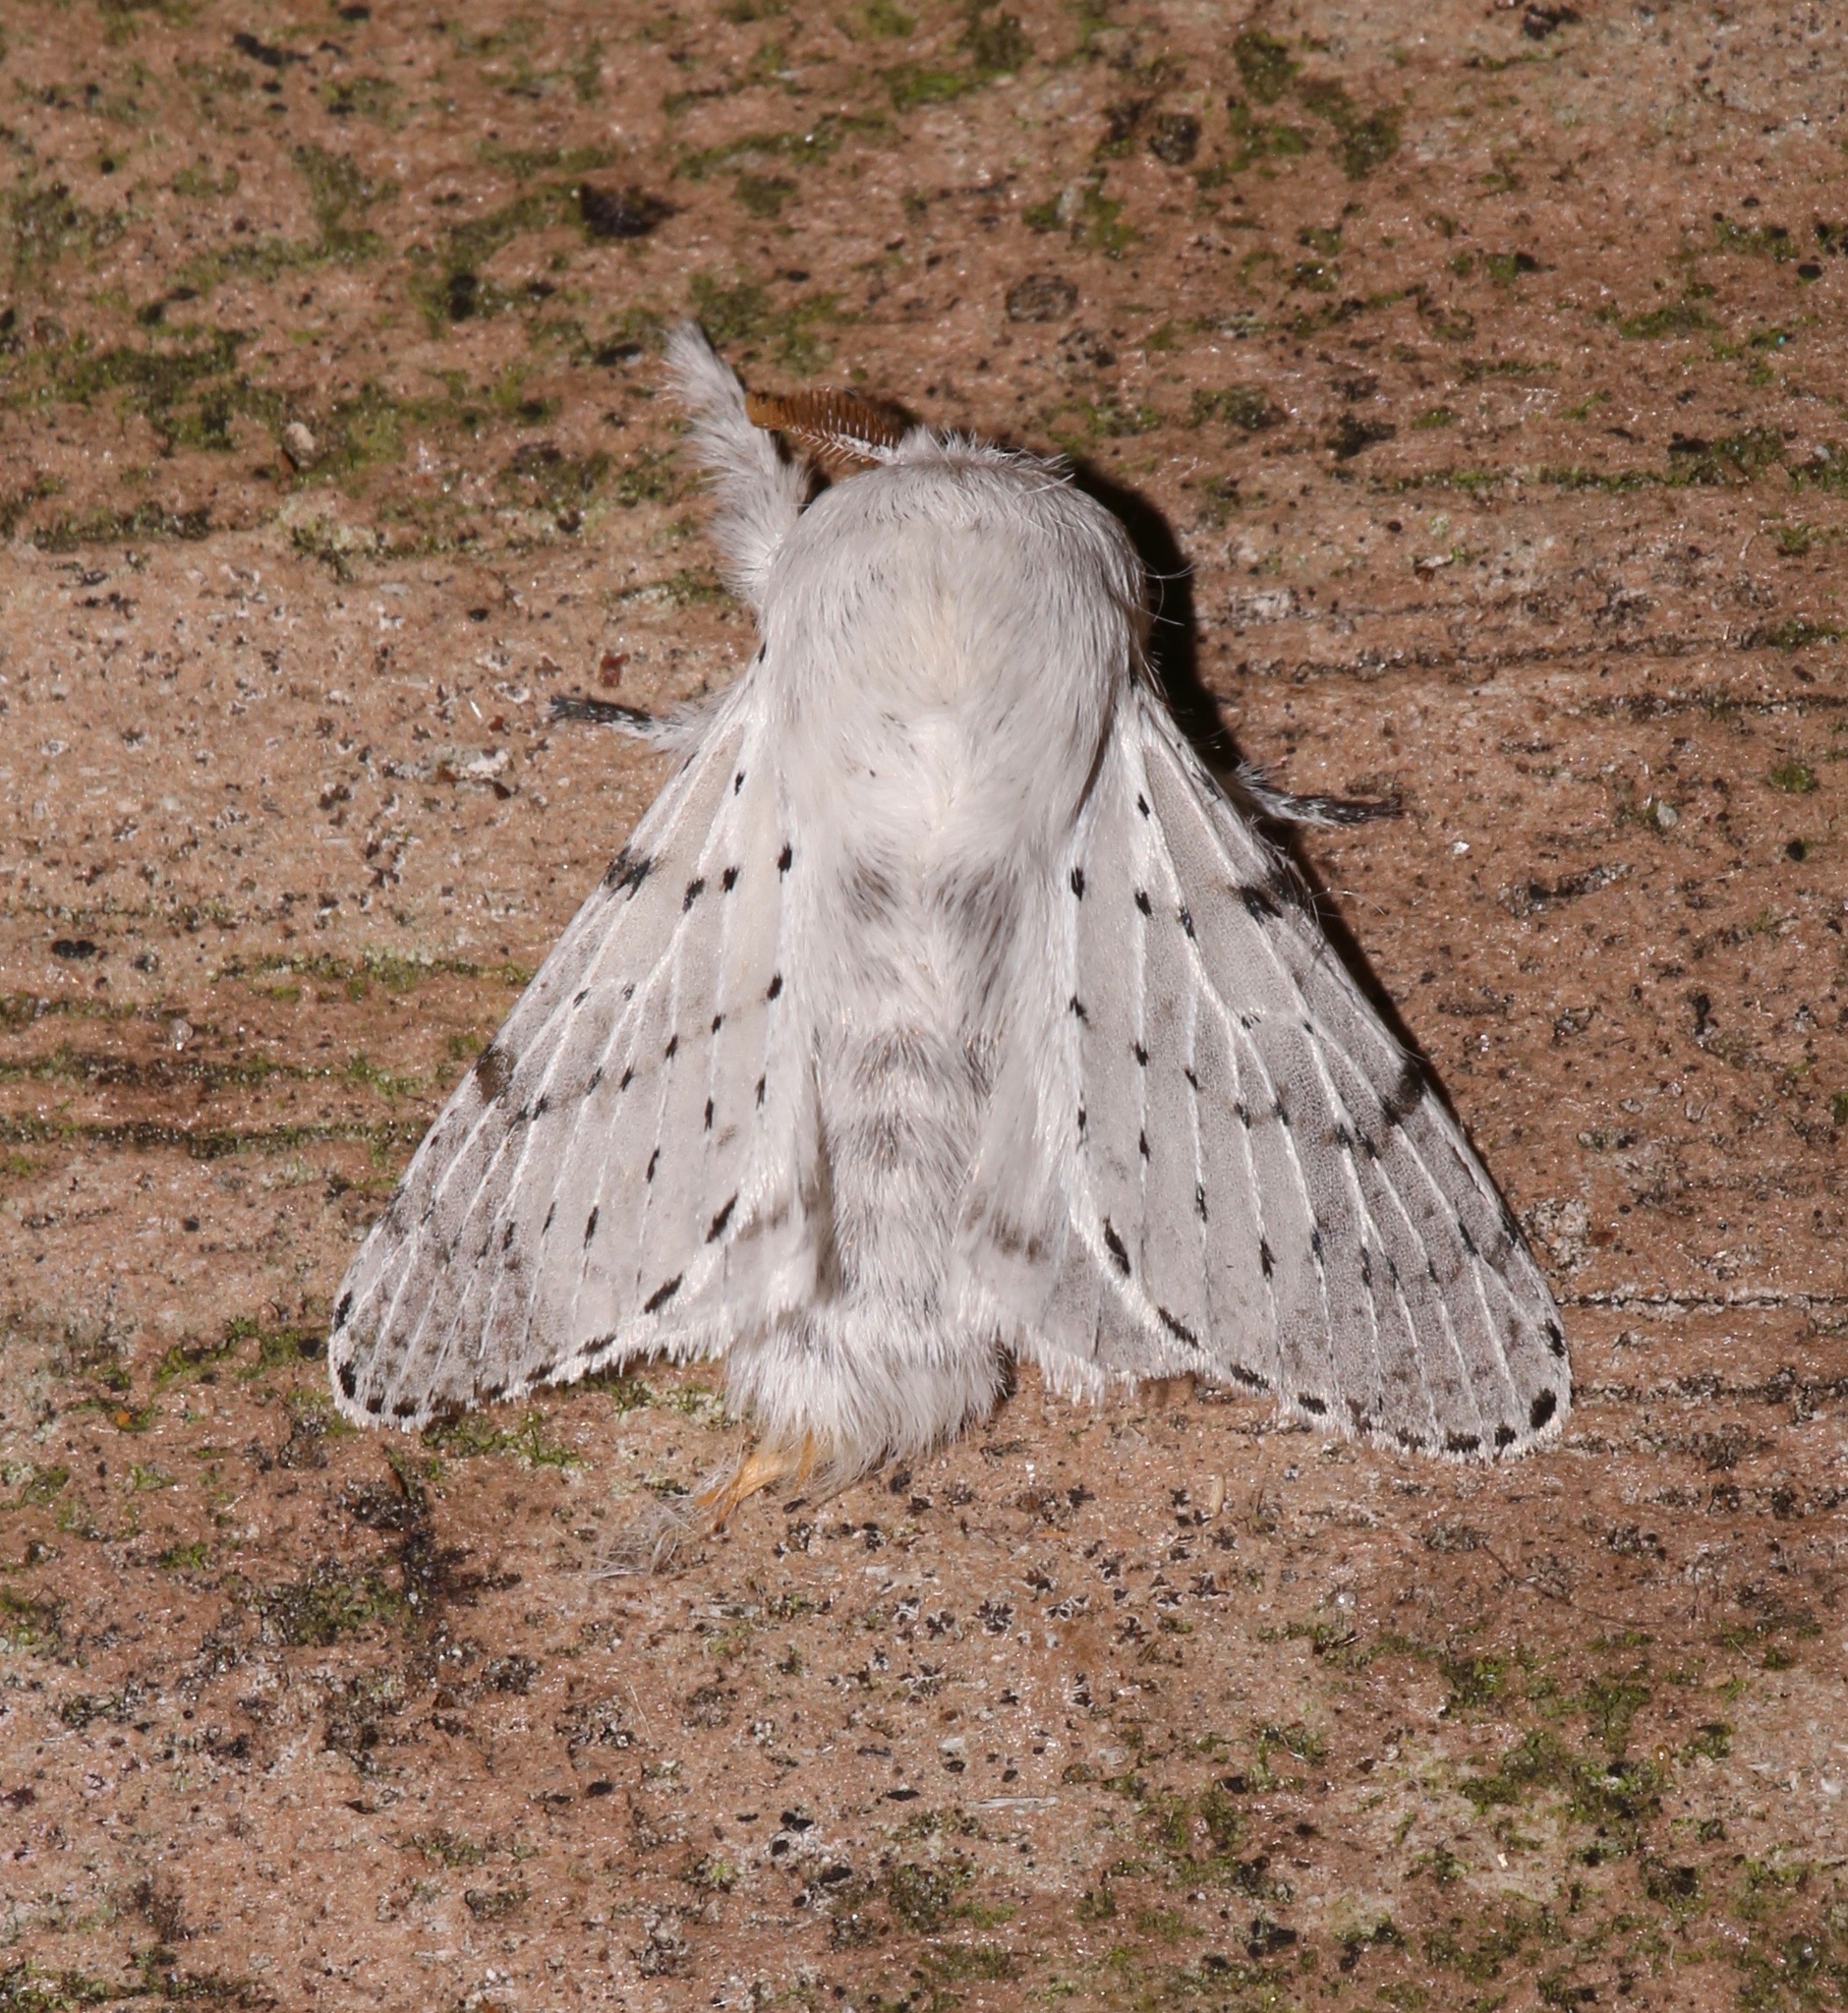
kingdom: Animalia
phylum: Arthropoda
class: Insecta
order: Lepidoptera
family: Lasiocampidae
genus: Artace
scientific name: Artace cribrarius
